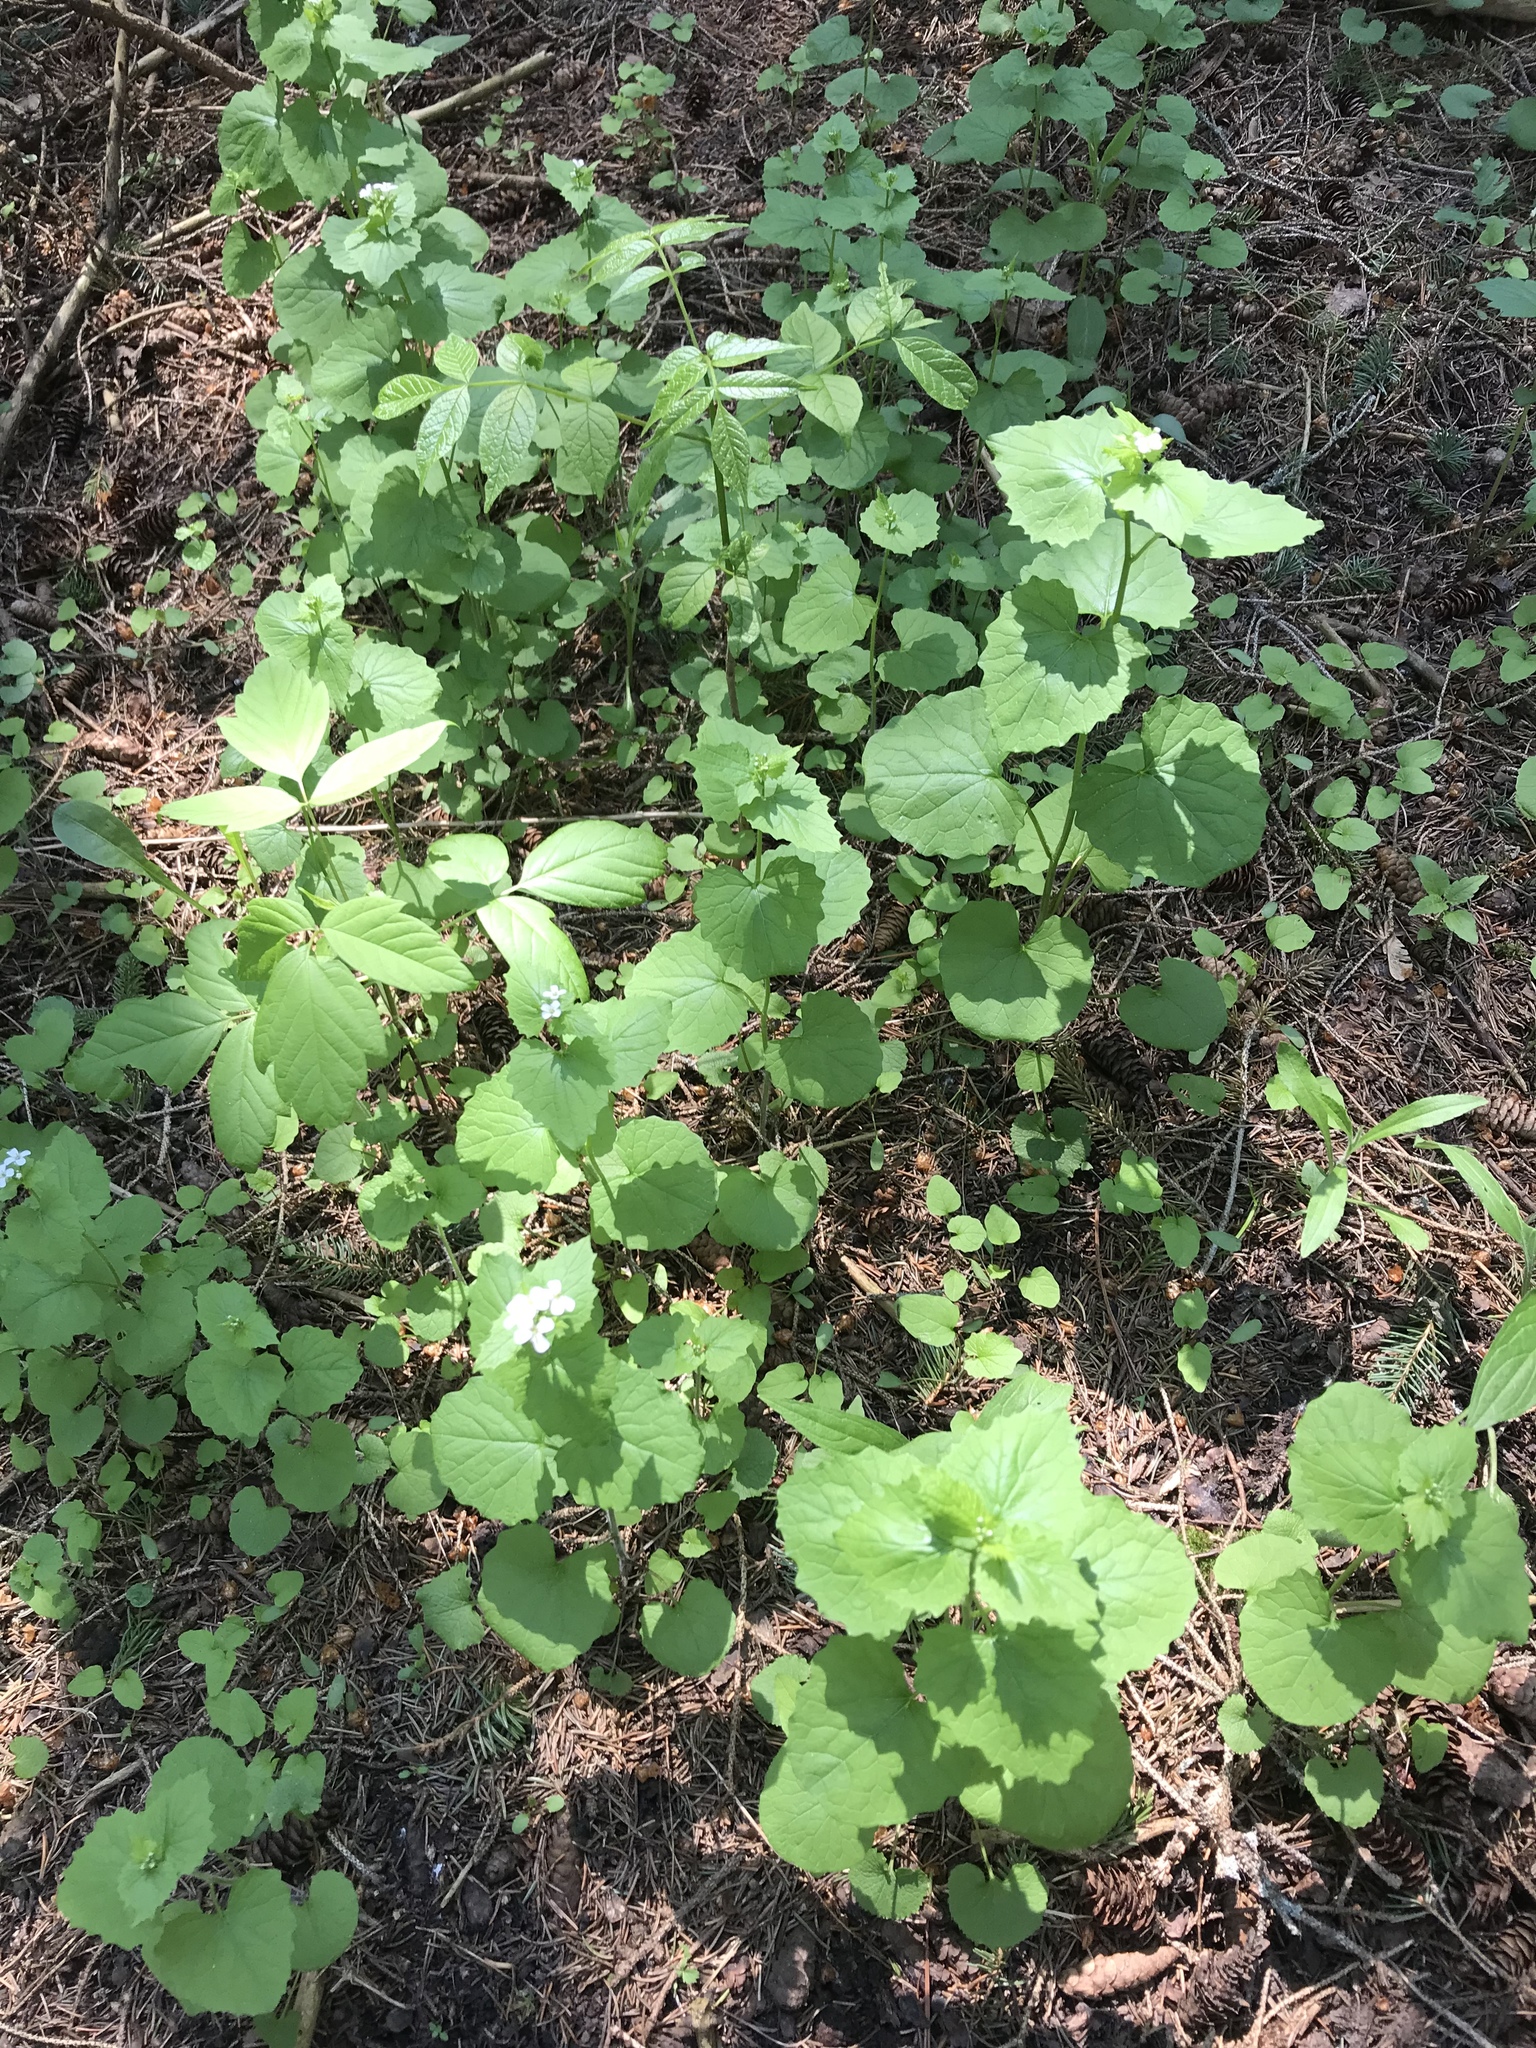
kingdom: Plantae
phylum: Tracheophyta
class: Magnoliopsida
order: Brassicales
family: Brassicaceae
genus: Alliaria
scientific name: Alliaria petiolata
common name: Garlic mustard
